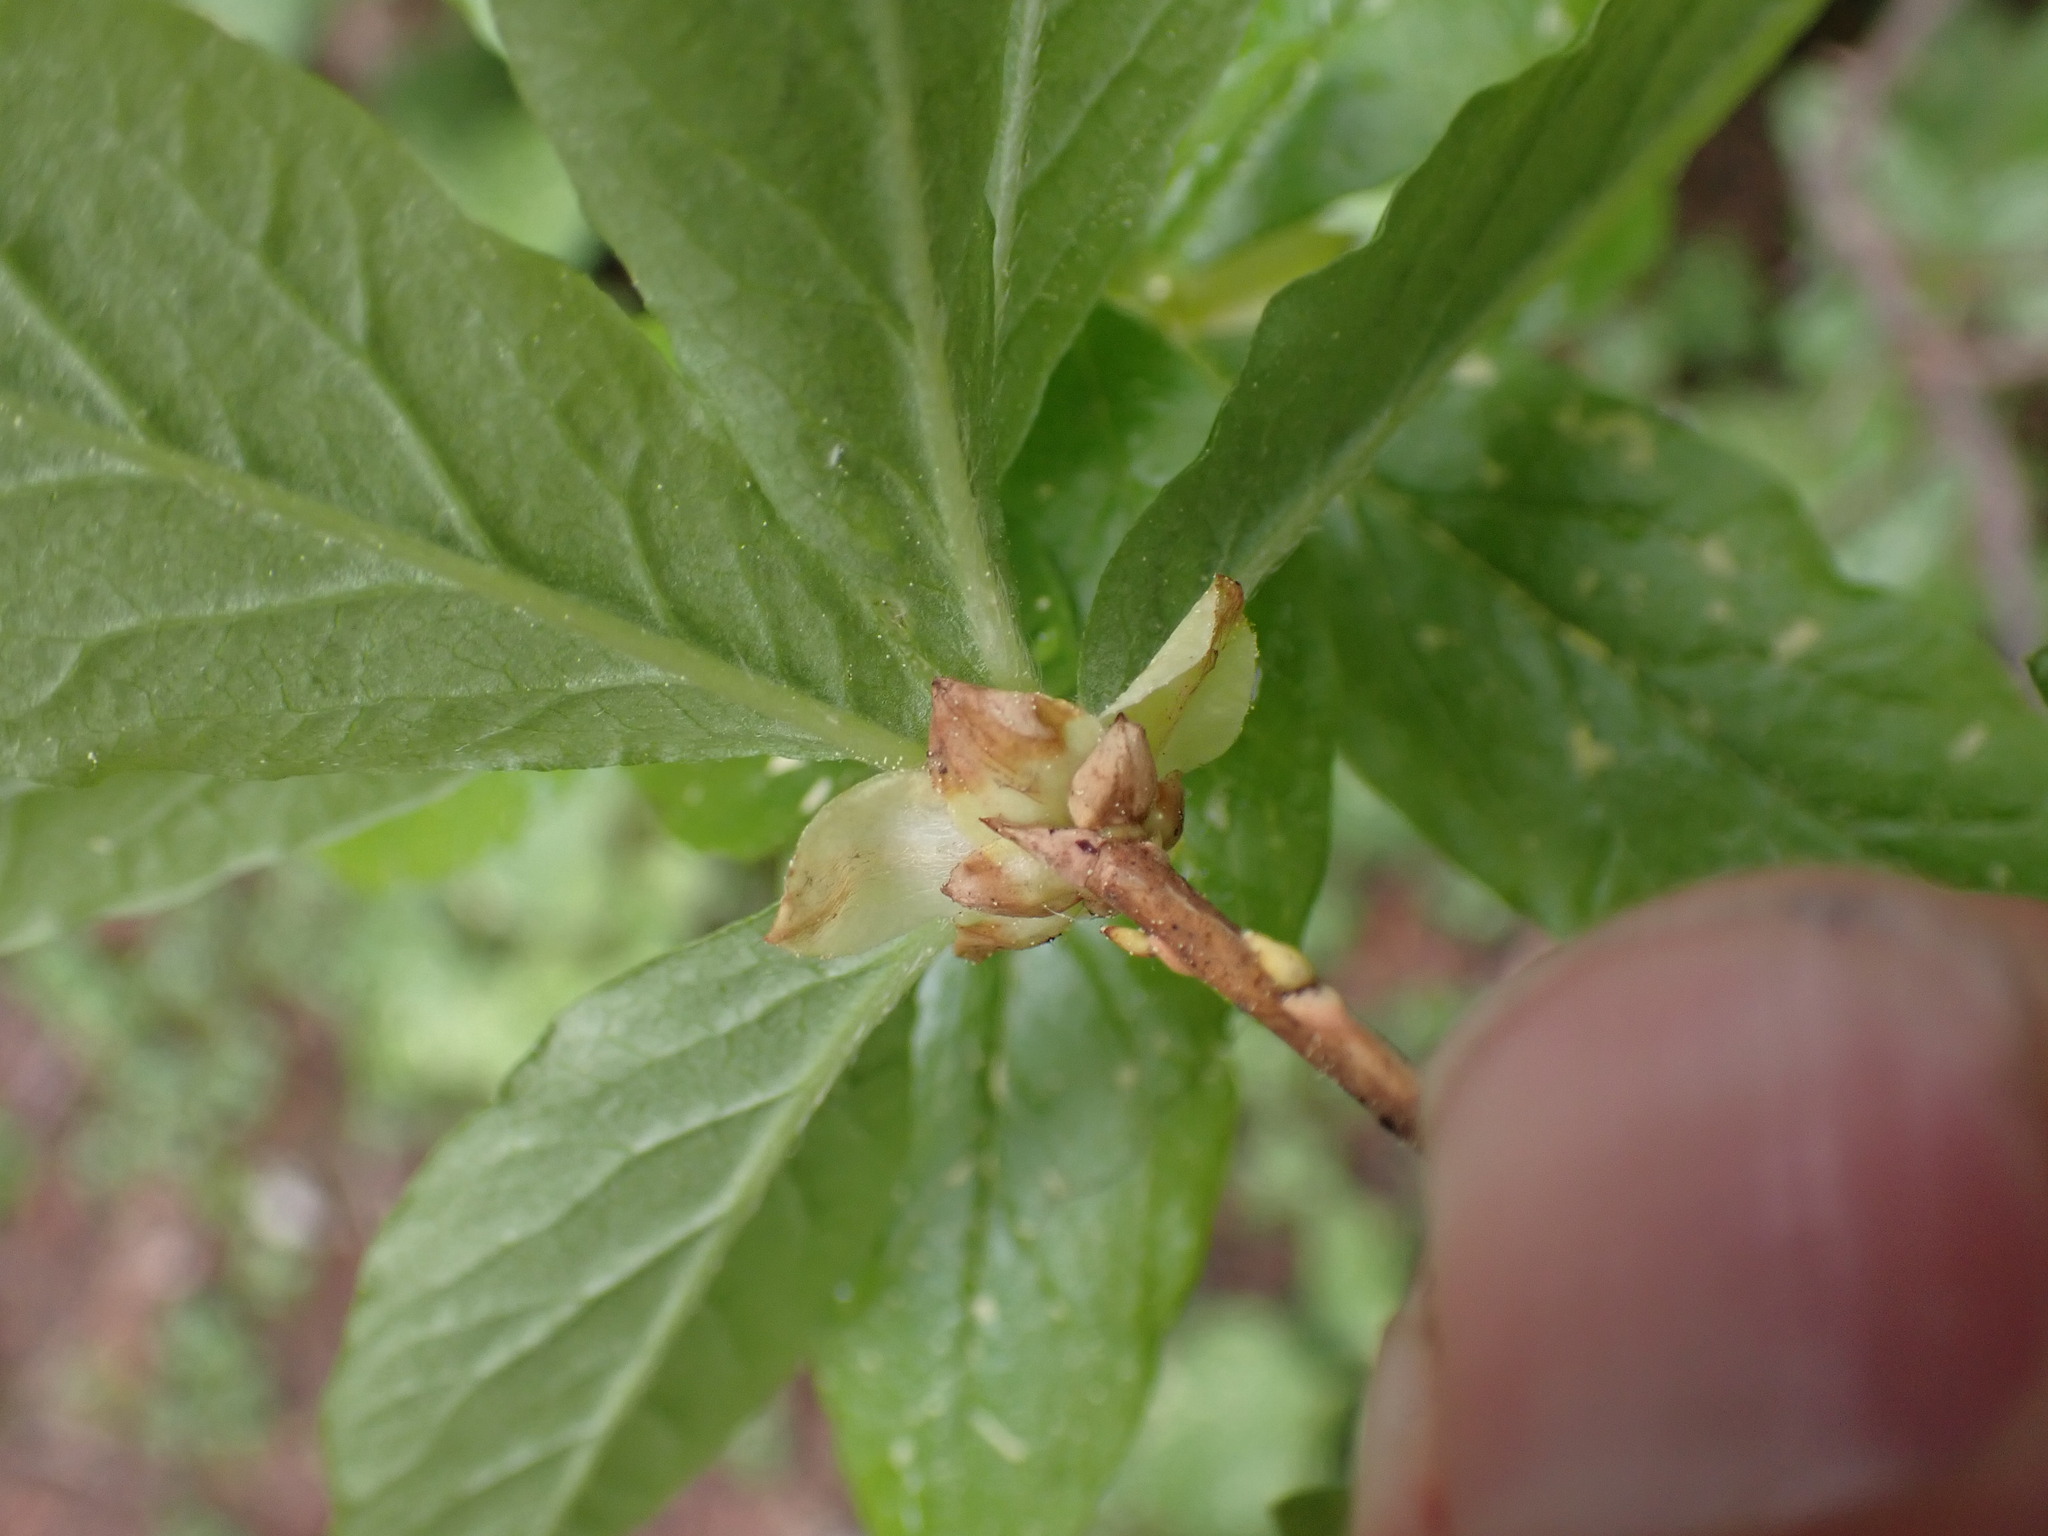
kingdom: Plantae
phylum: Tracheophyta
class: Magnoliopsida
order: Ericales
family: Ericaceae
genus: Rhododendron
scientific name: Rhododendron albiflorum
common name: White rhododendron
